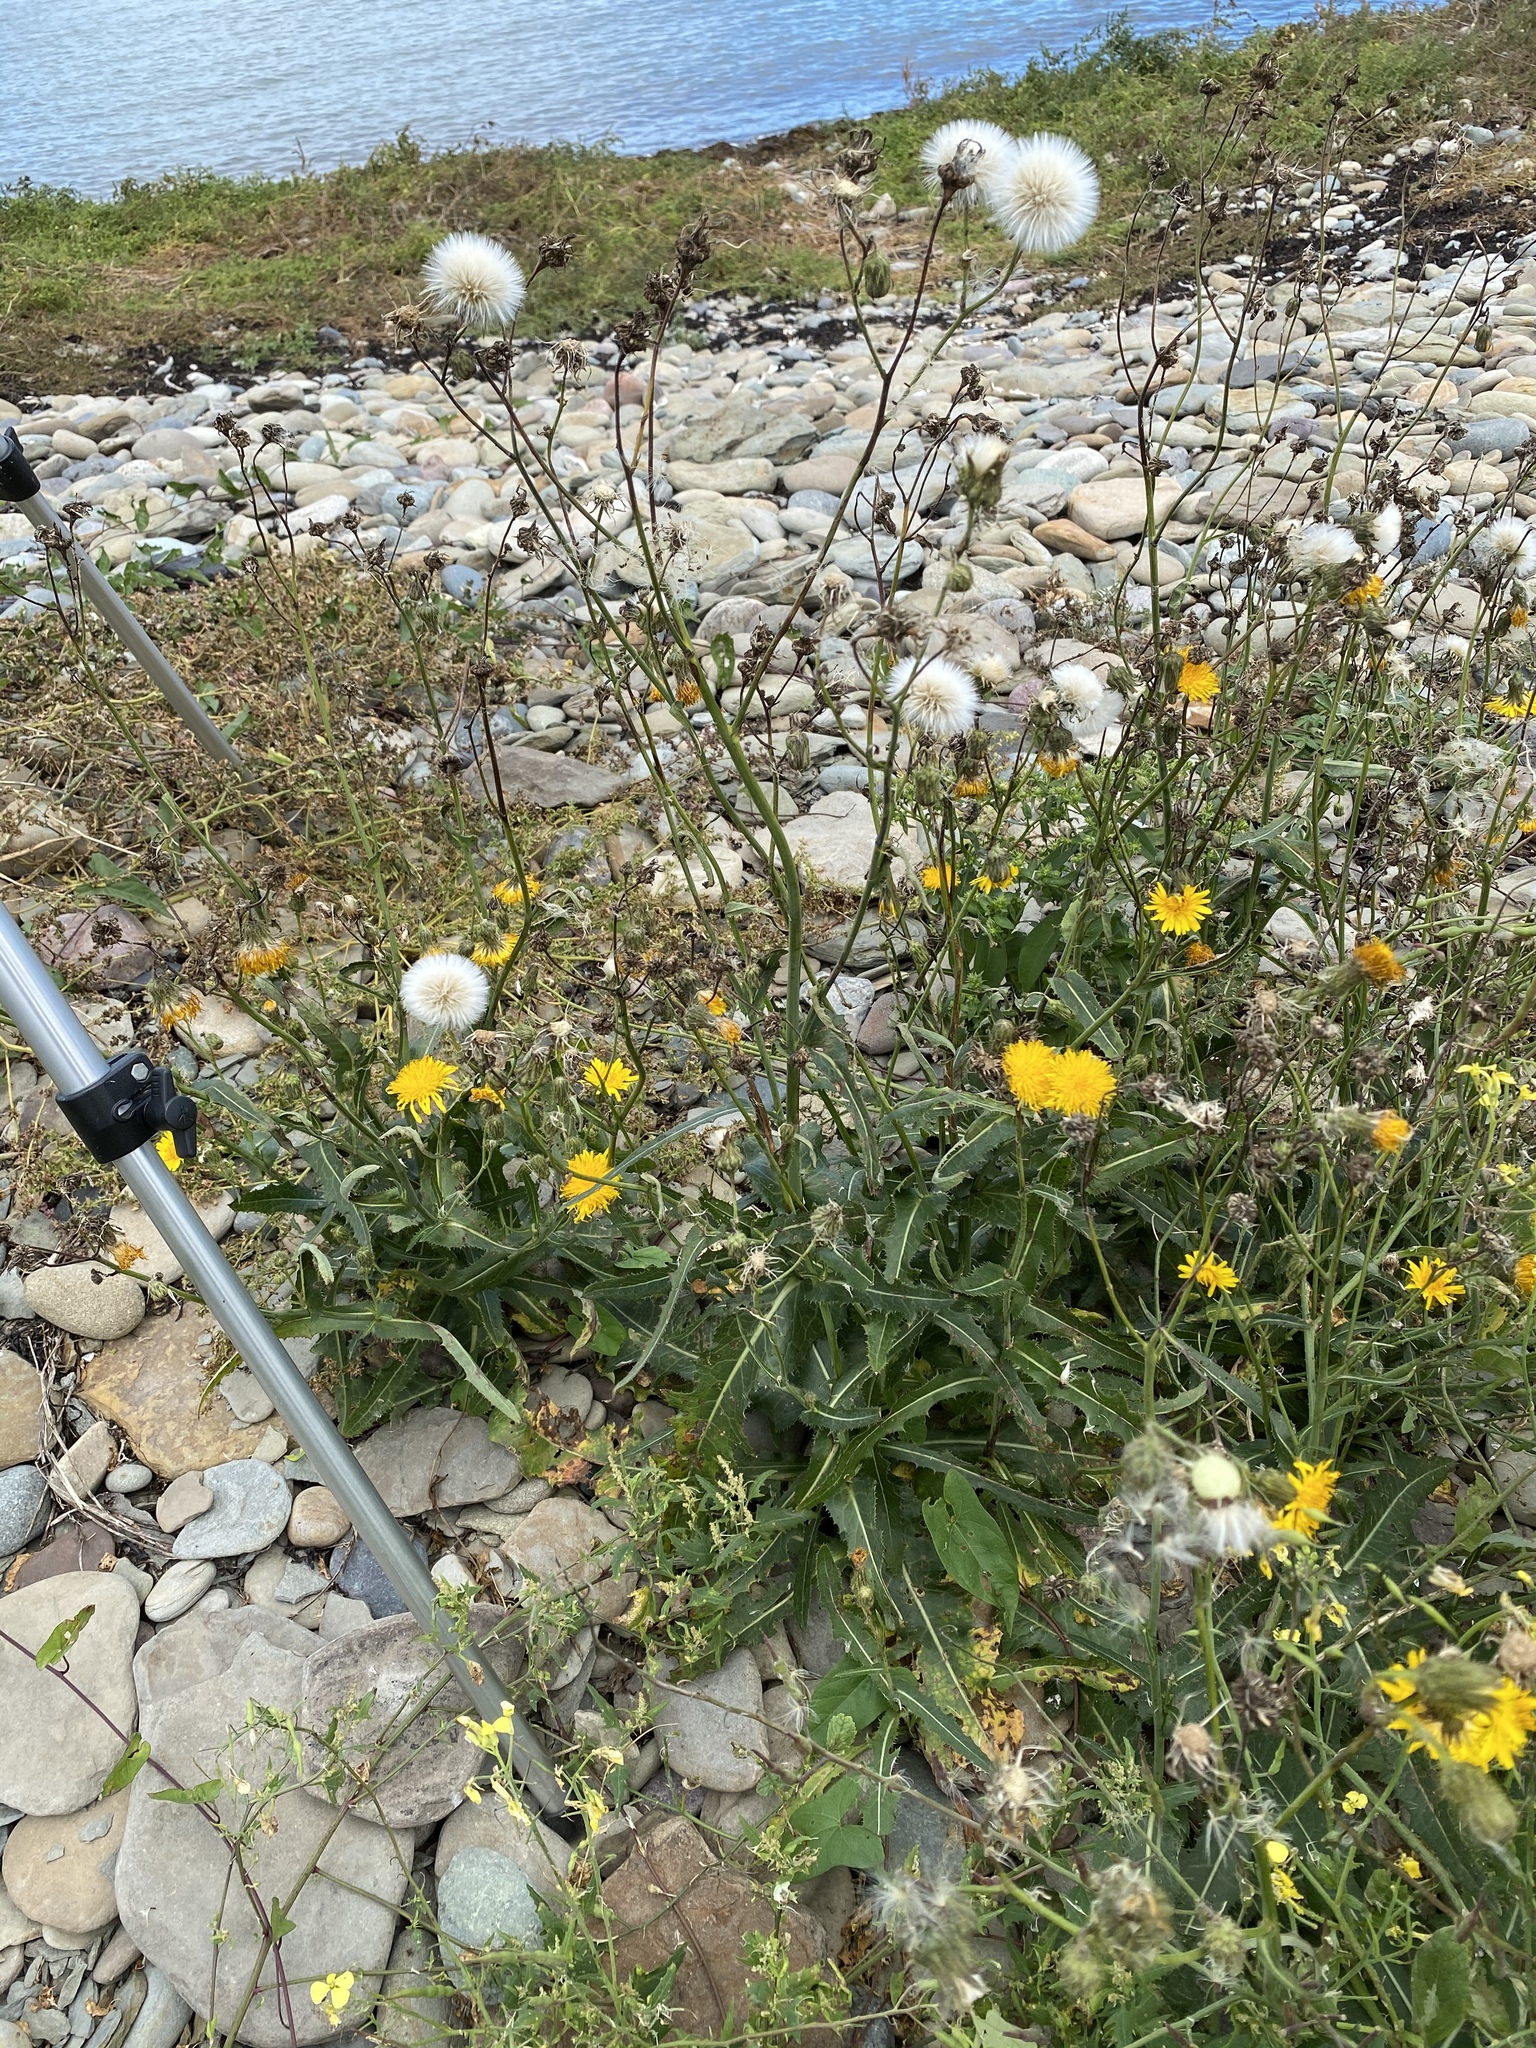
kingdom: Plantae
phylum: Tracheophyta
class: Magnoliopsida
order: Asterales
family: Asteraceae
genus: Sonchus
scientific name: Sonchus arvensis
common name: Perennial sow-thistle
